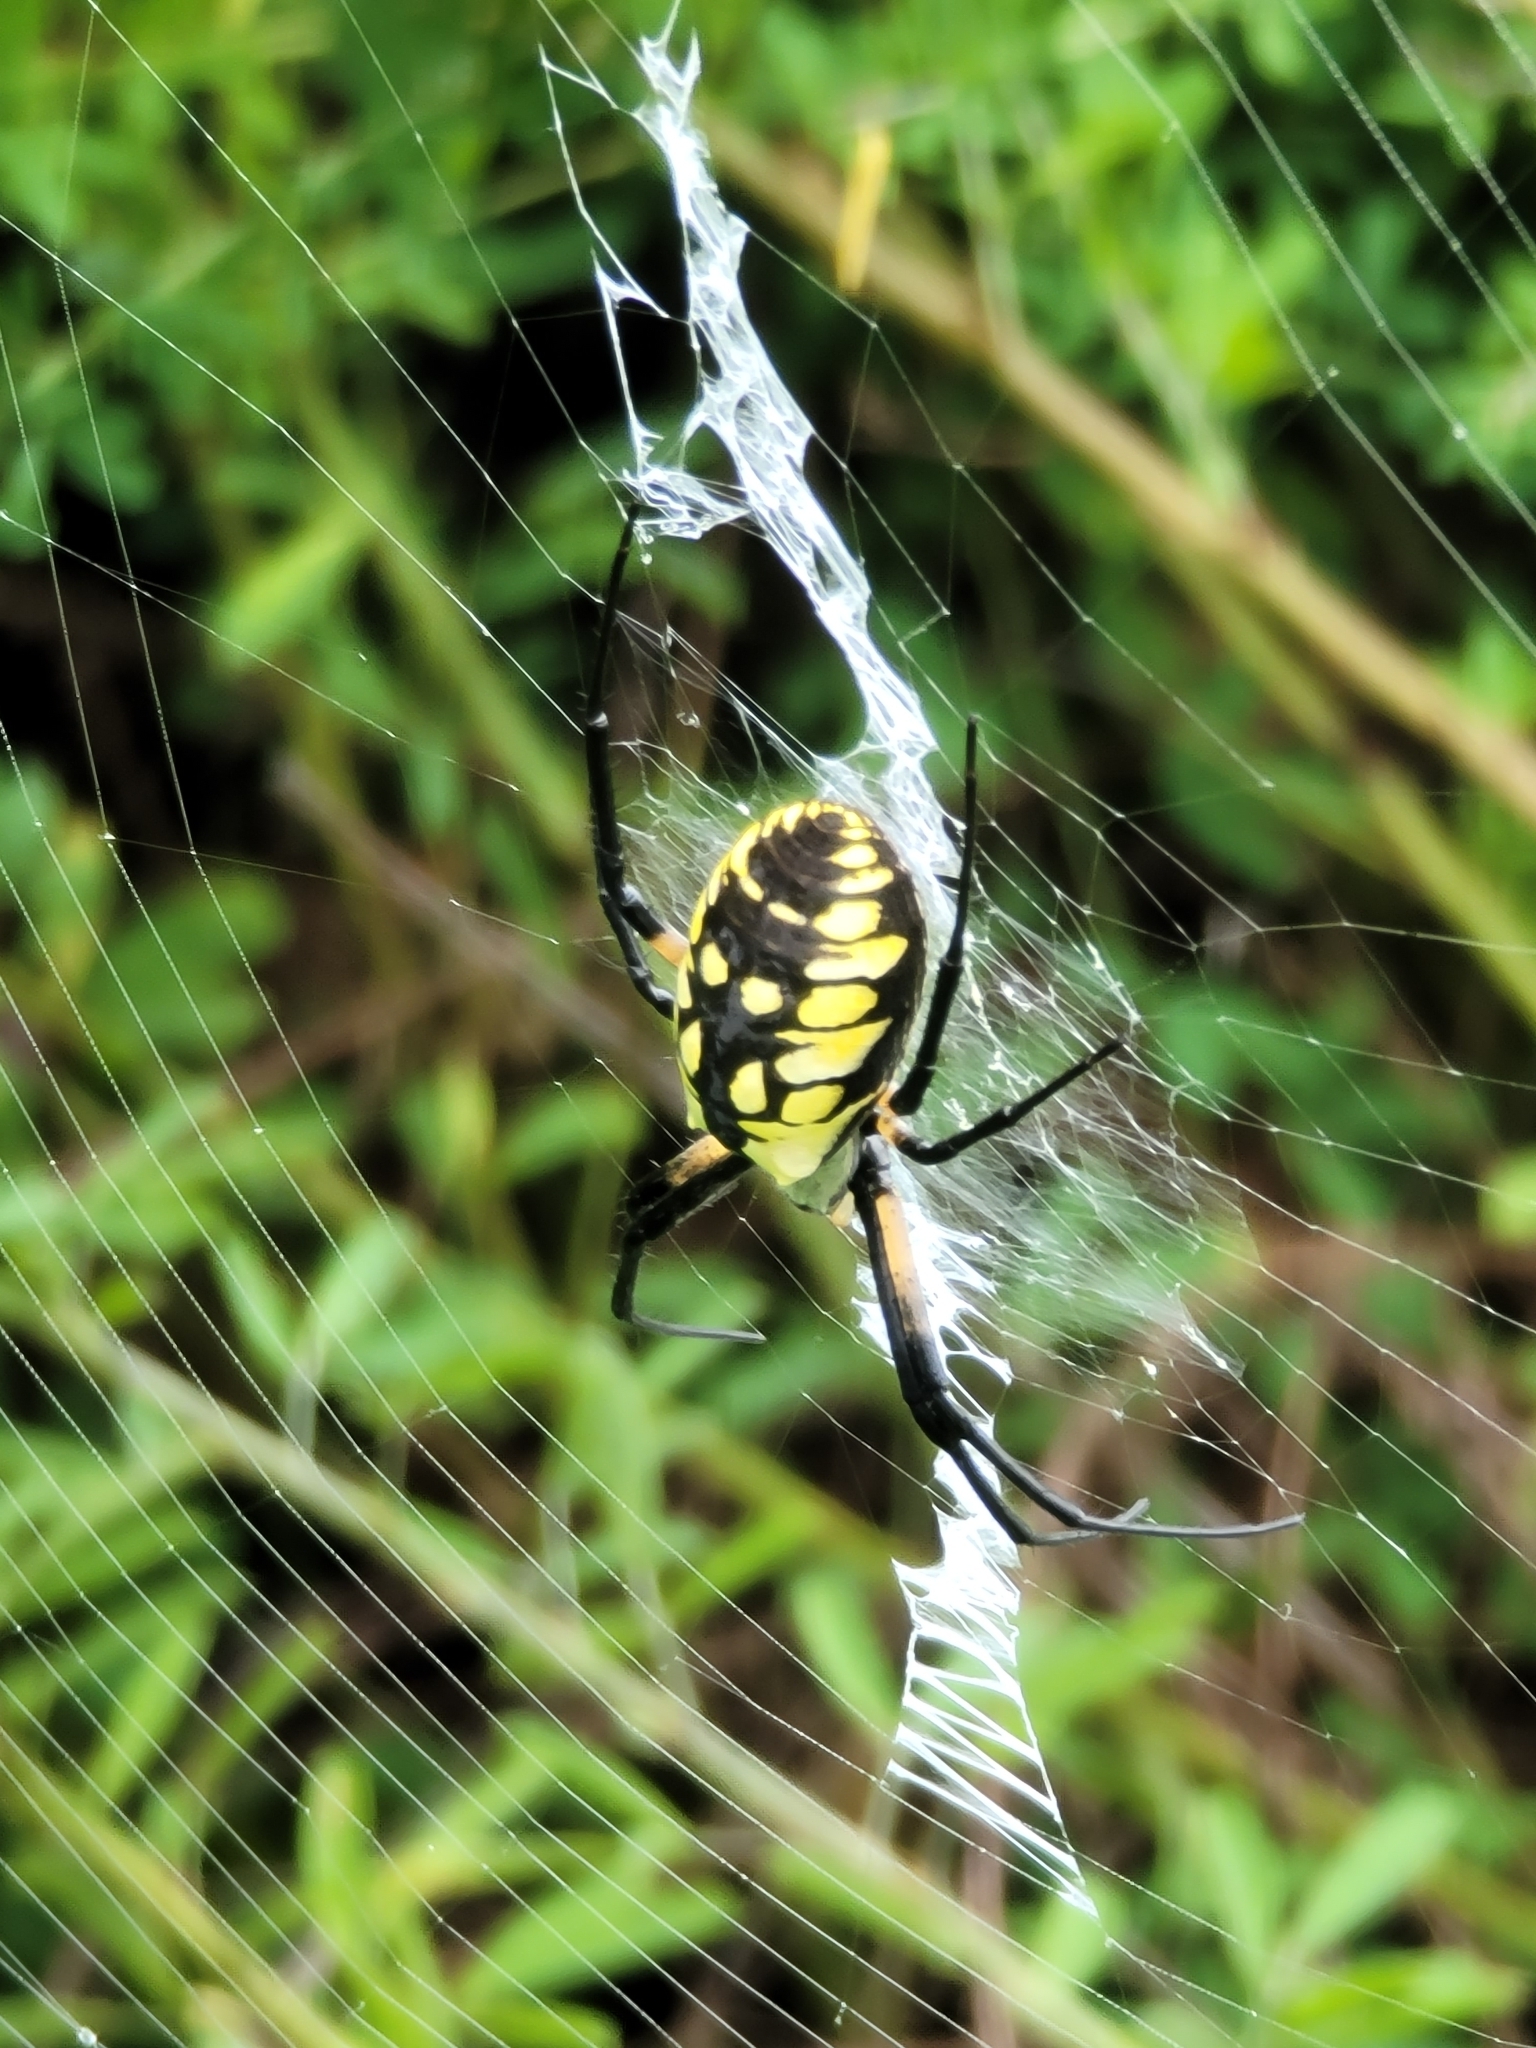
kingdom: Animalia
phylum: Arthropoda
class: Arachnida
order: Araneae
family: Araneidae
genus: Argiope
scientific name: Argiope aurantia
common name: Orb weavers
